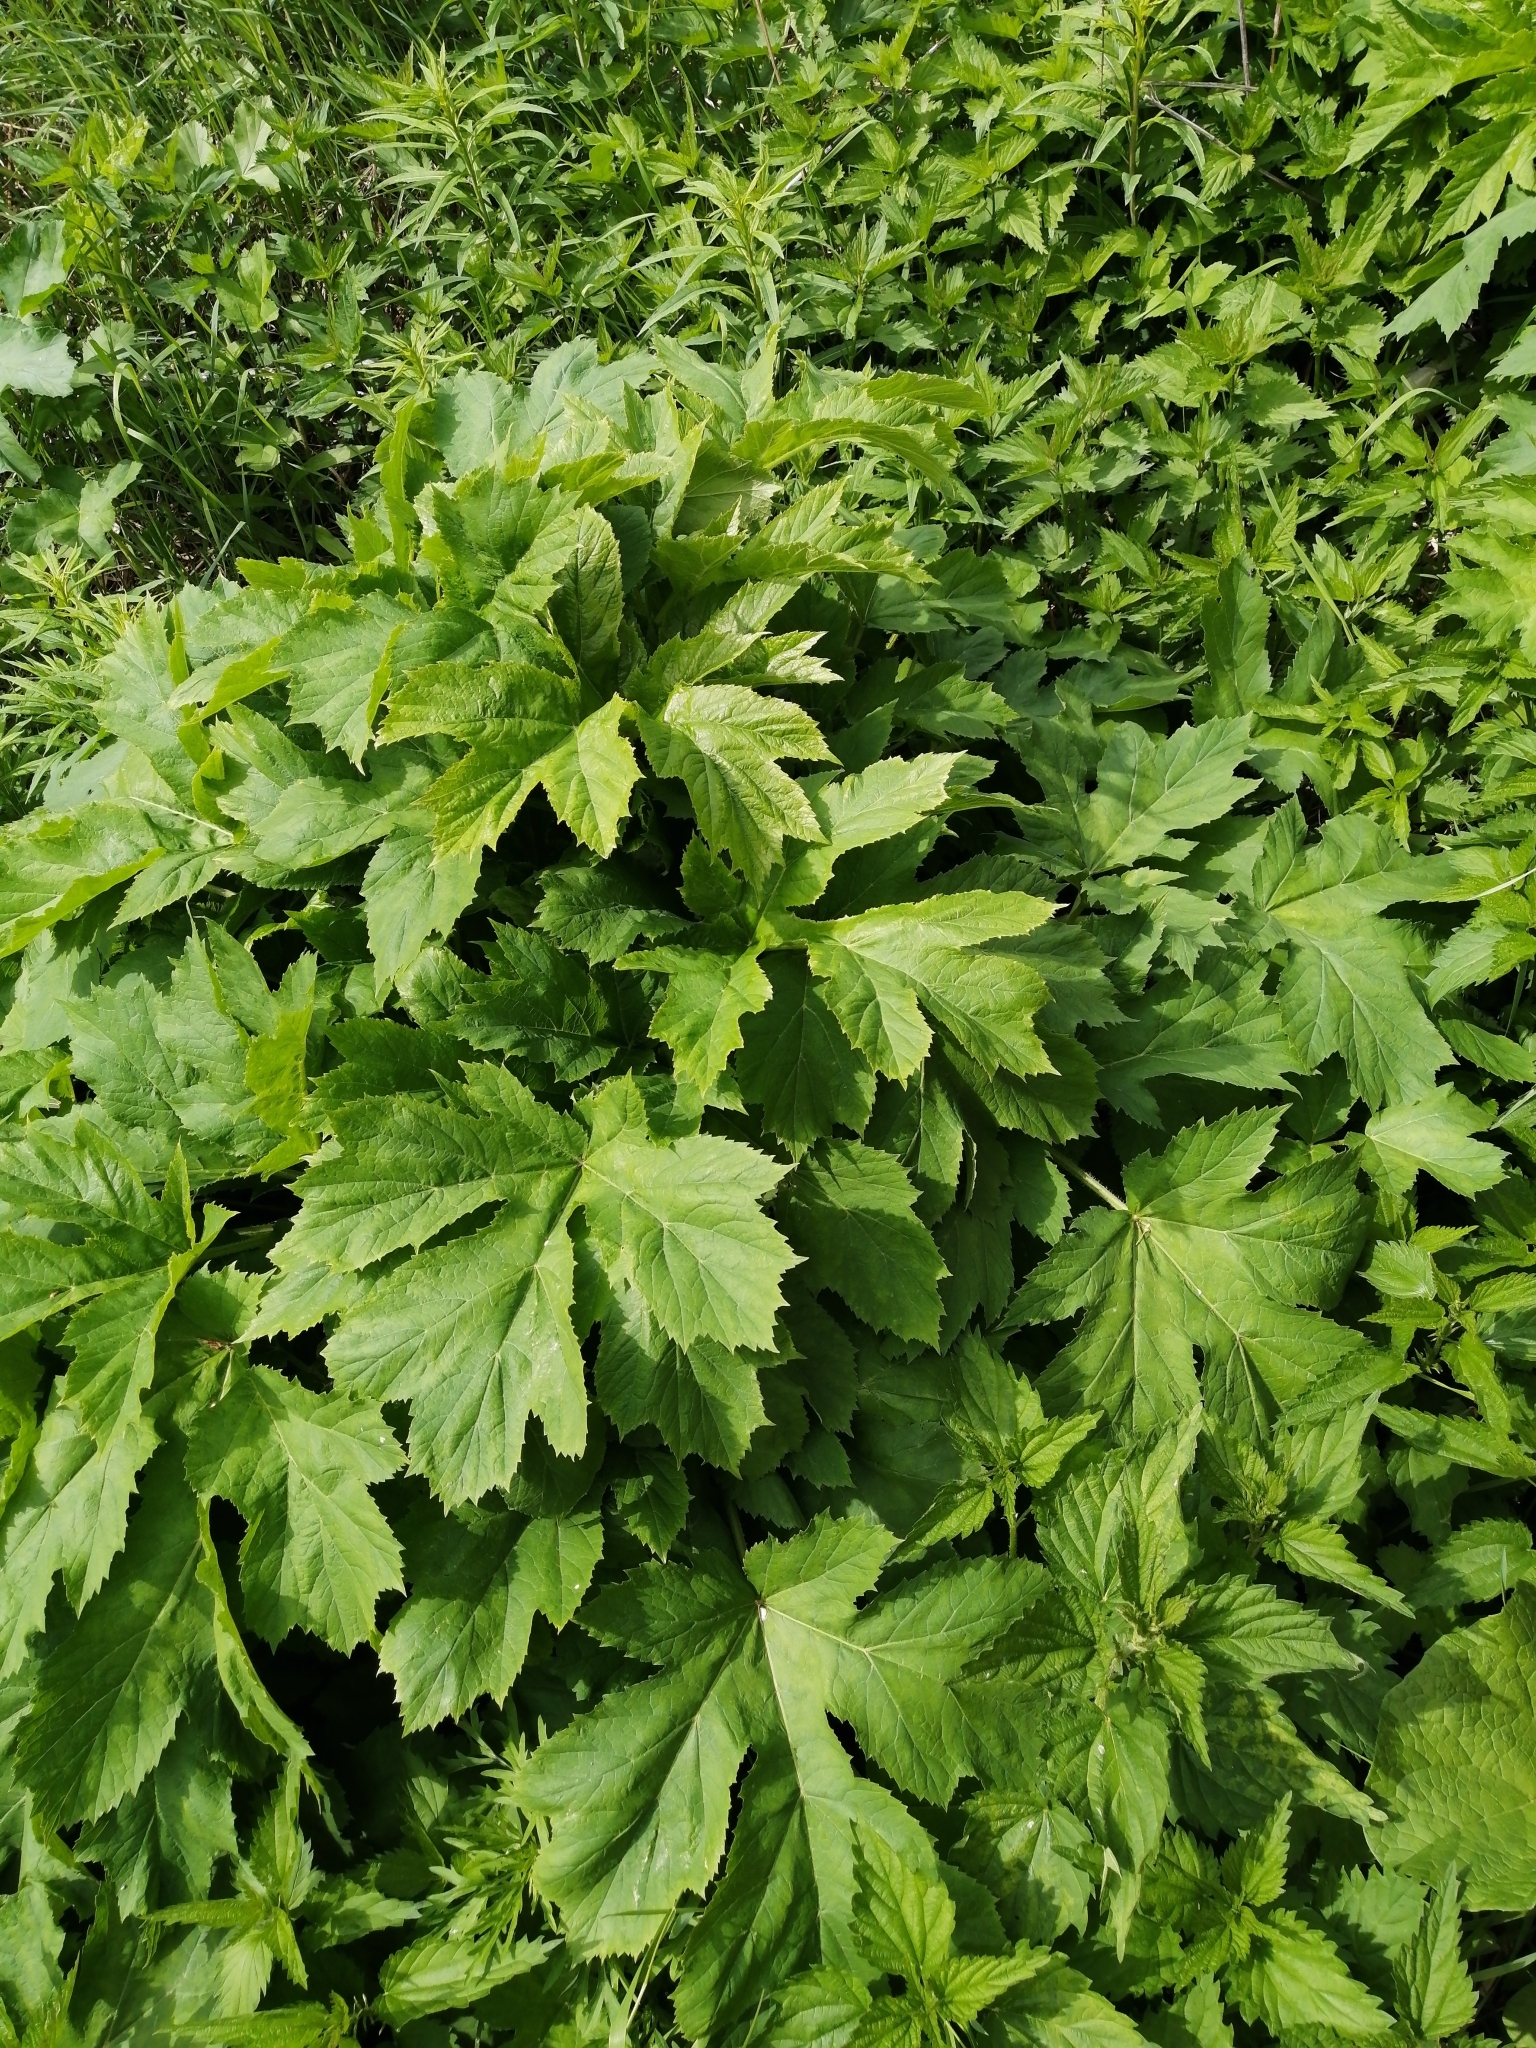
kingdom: Plantae
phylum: Tracheophyta
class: Magnoliopsida
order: Apiales
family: Apiaceae
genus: Heracleum
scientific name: Heracleum dissectum
